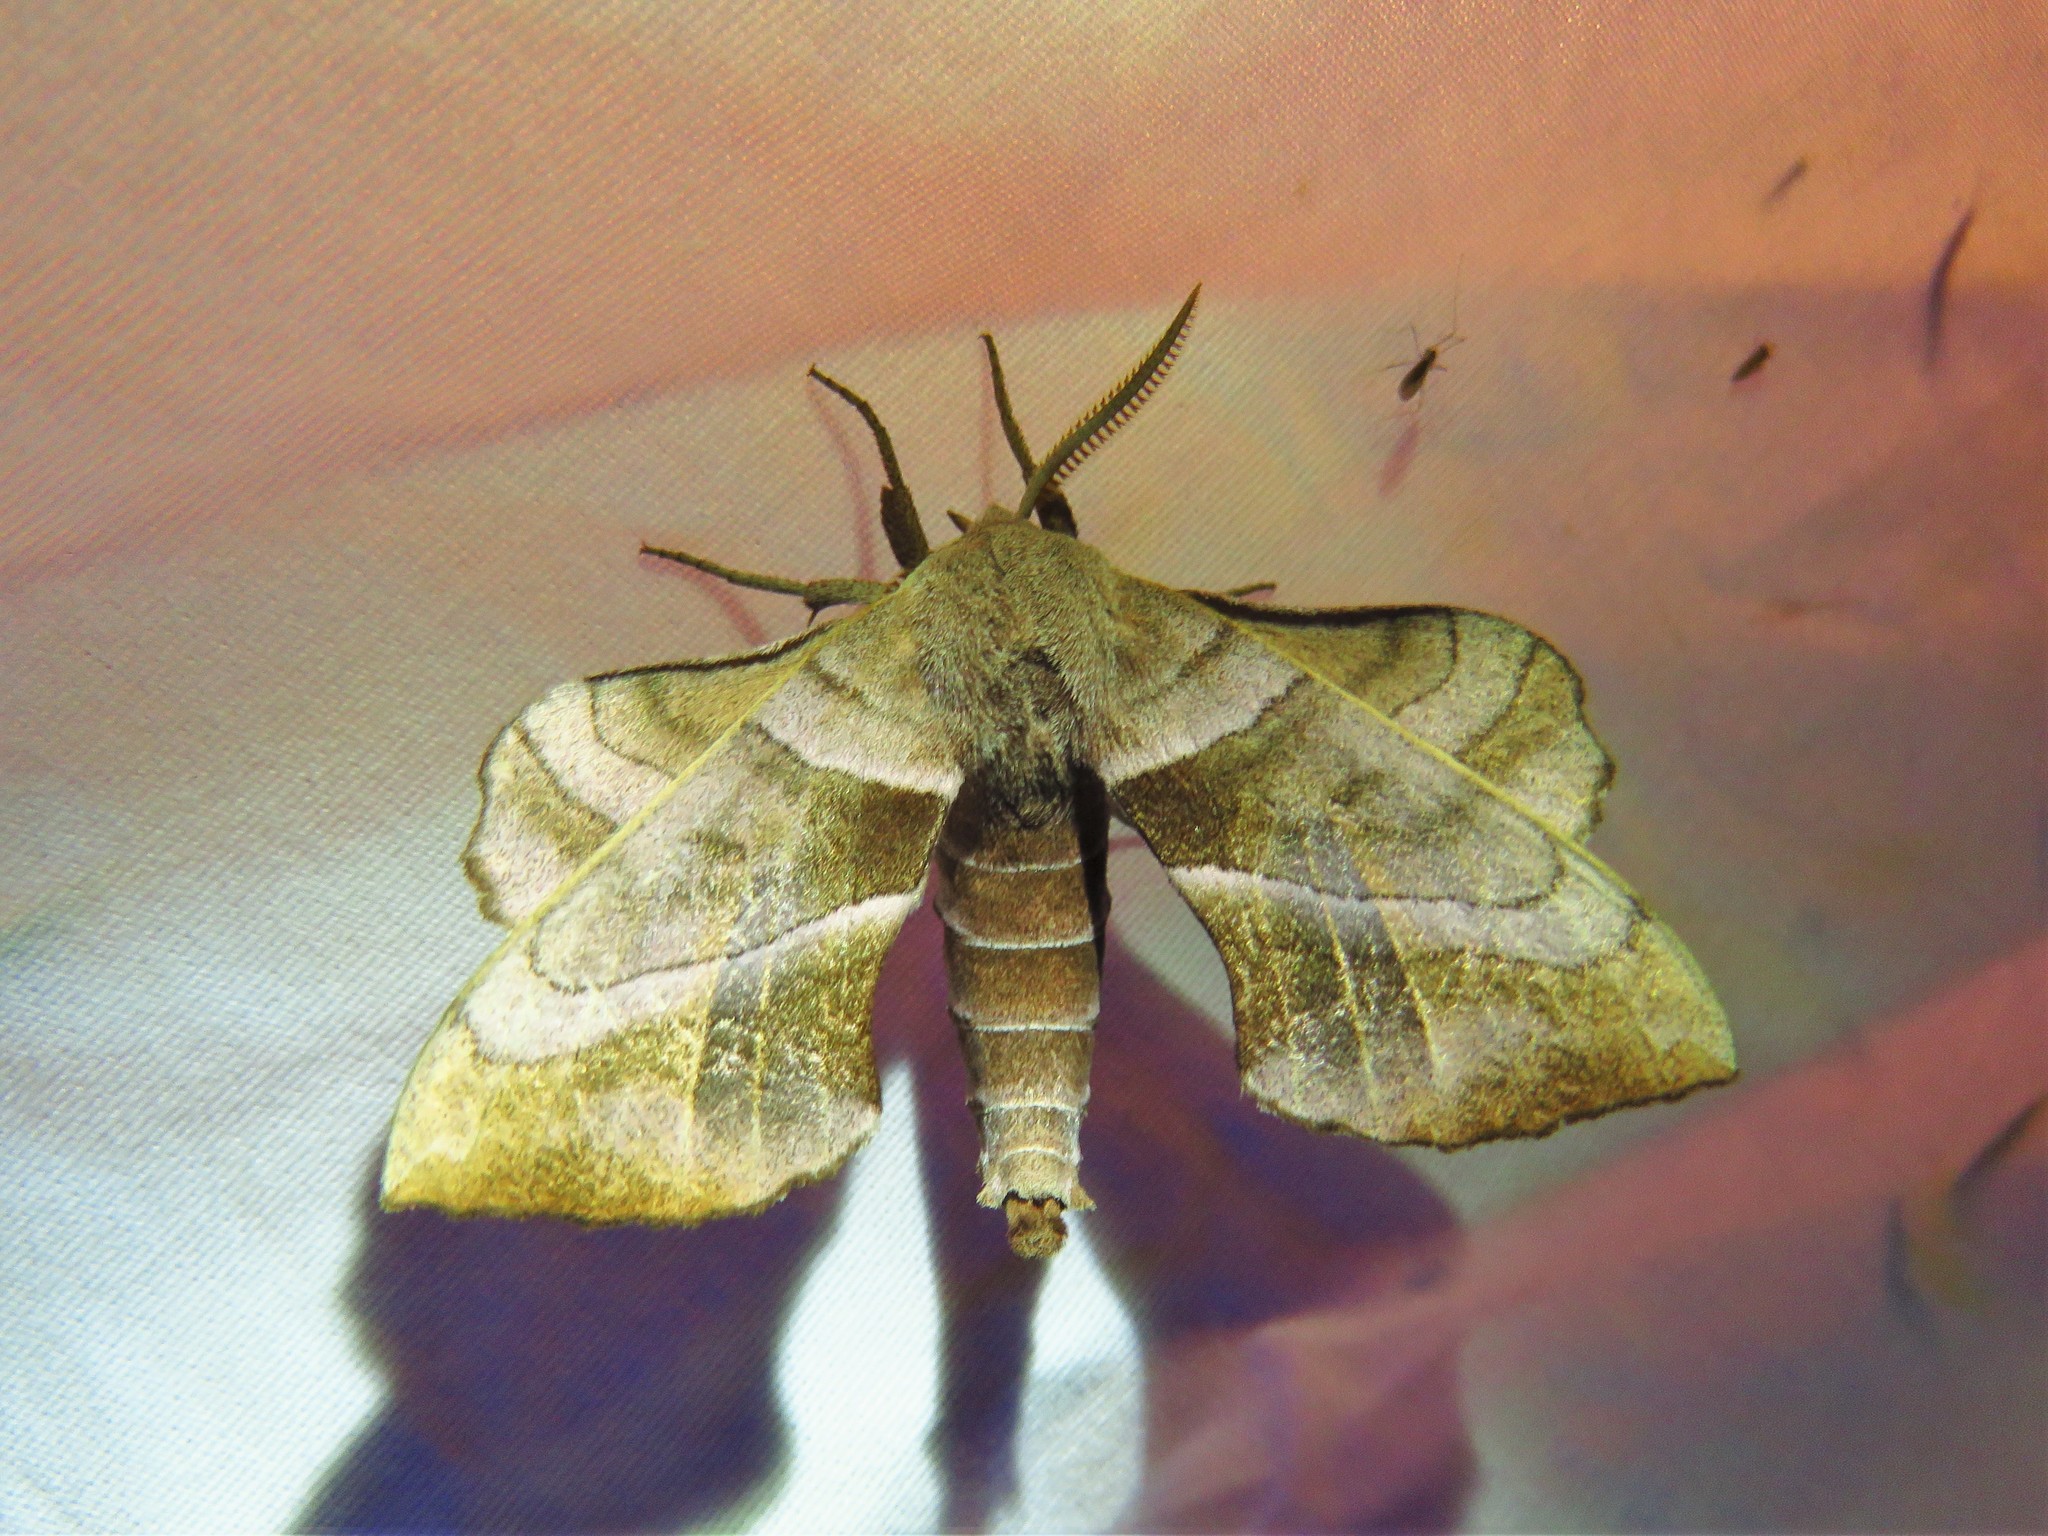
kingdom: Animalia
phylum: Arthropoda
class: Insecta
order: Lepidoptera
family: Sphingidae
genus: Amorpha
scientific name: Amorpha juglandis
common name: Walnut sphinx
